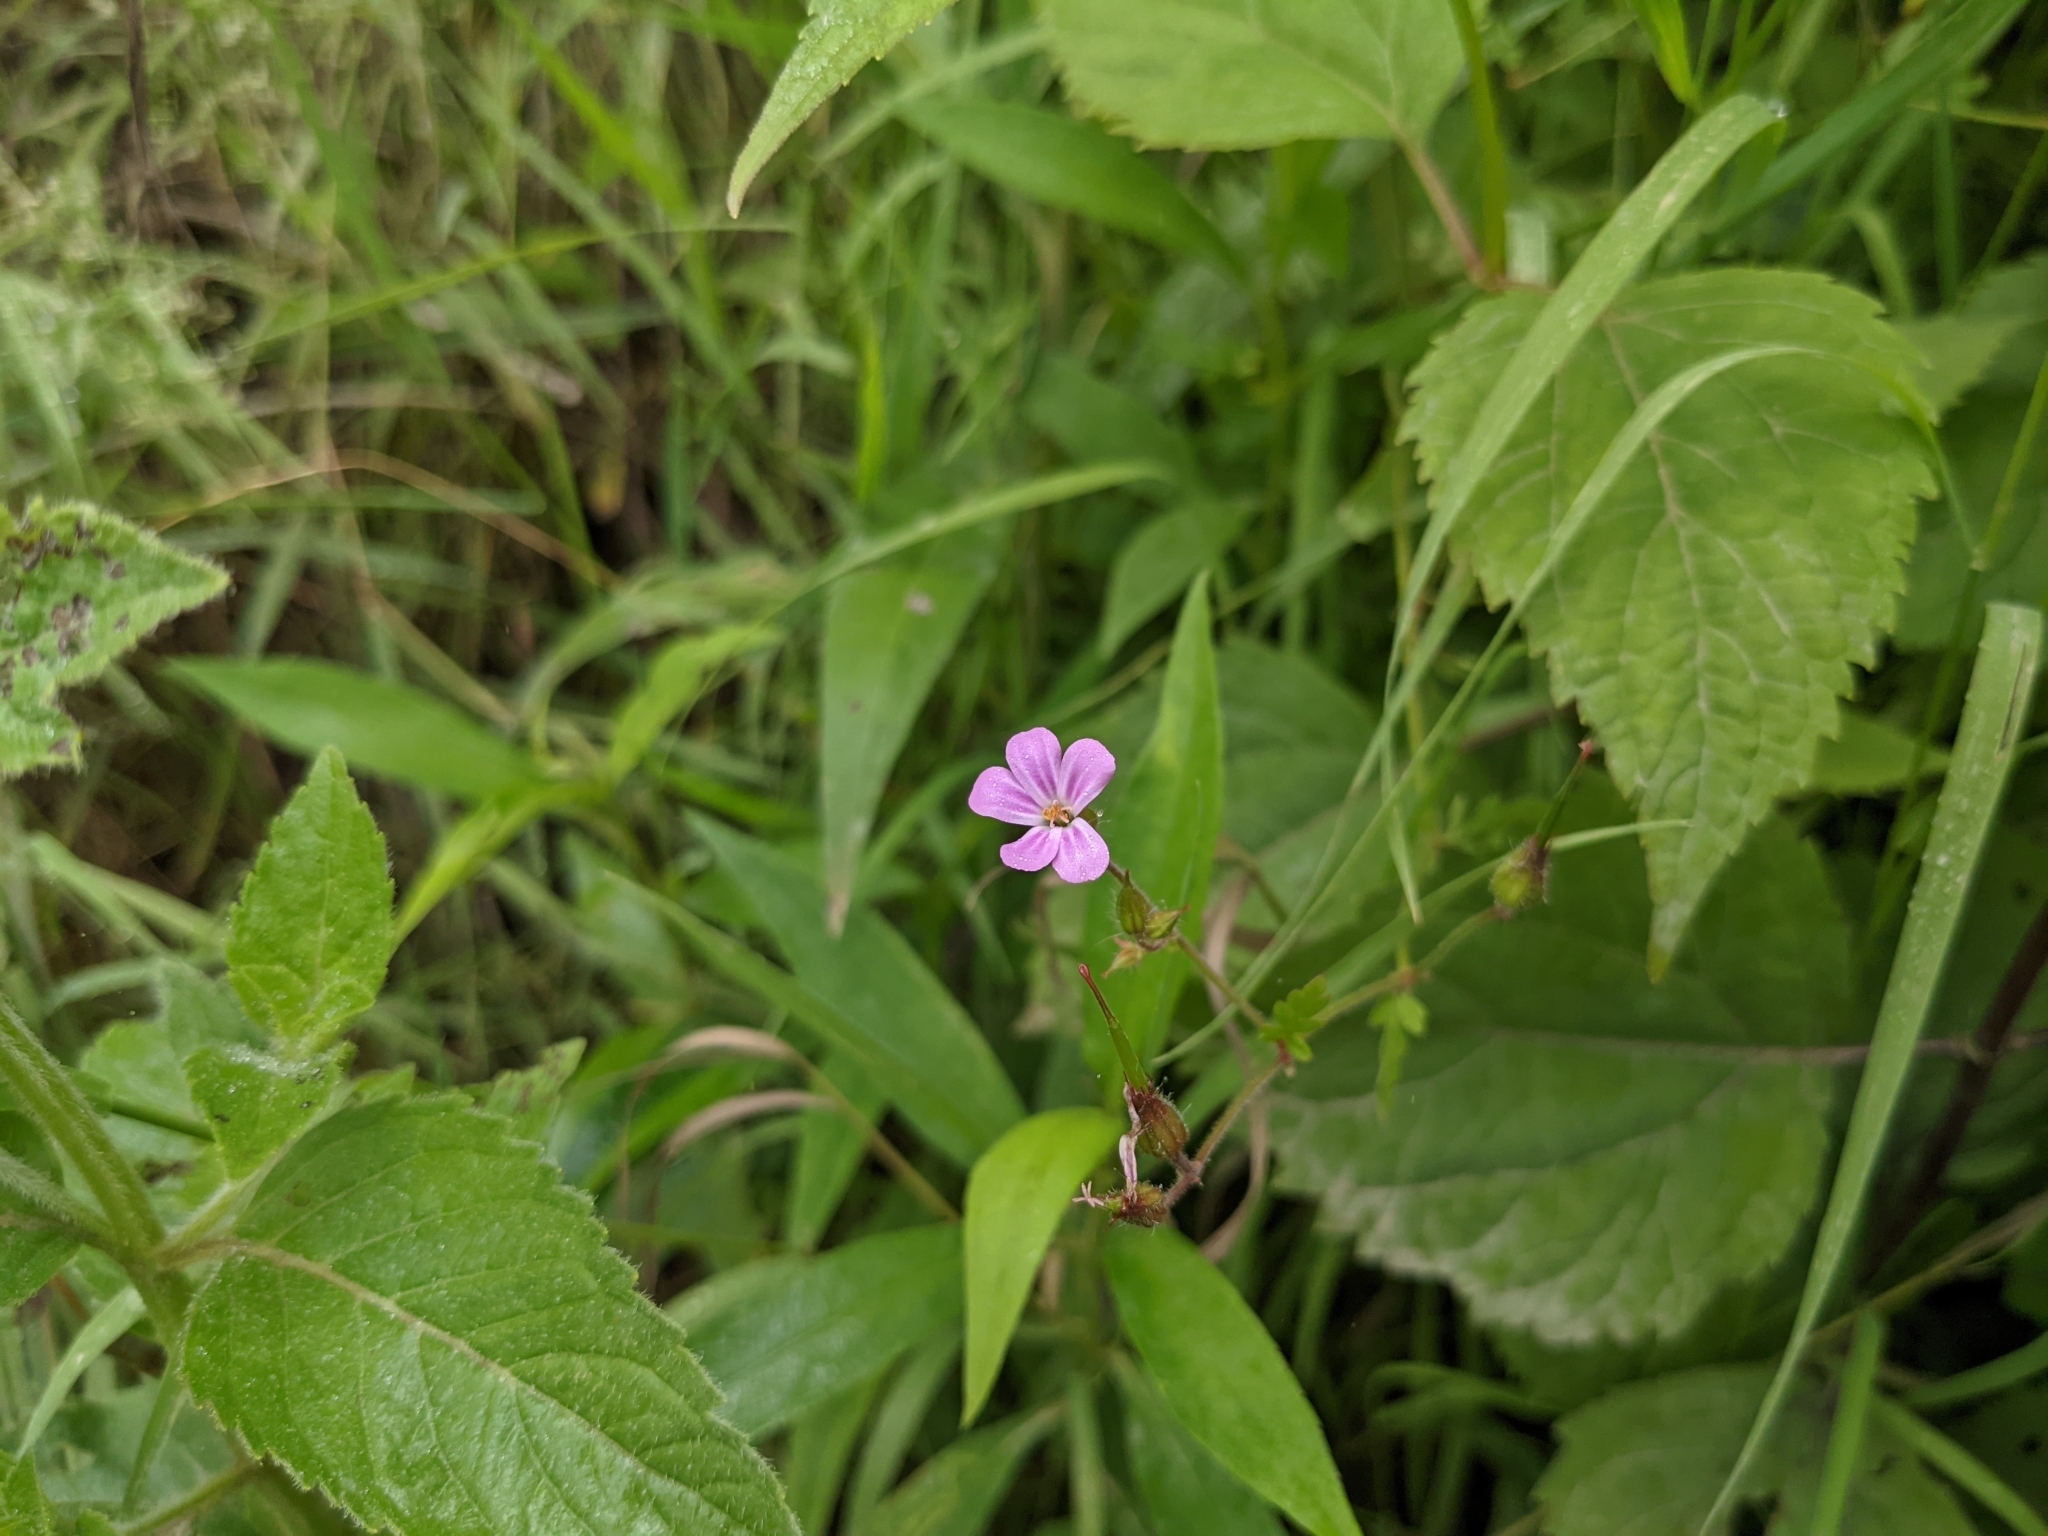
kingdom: Plantae
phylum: Tracheophyta
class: Magnoliopsida
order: Geraniales
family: Geraniaceae
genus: Geranium
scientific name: Geranium robertianum
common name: Herb-robert
